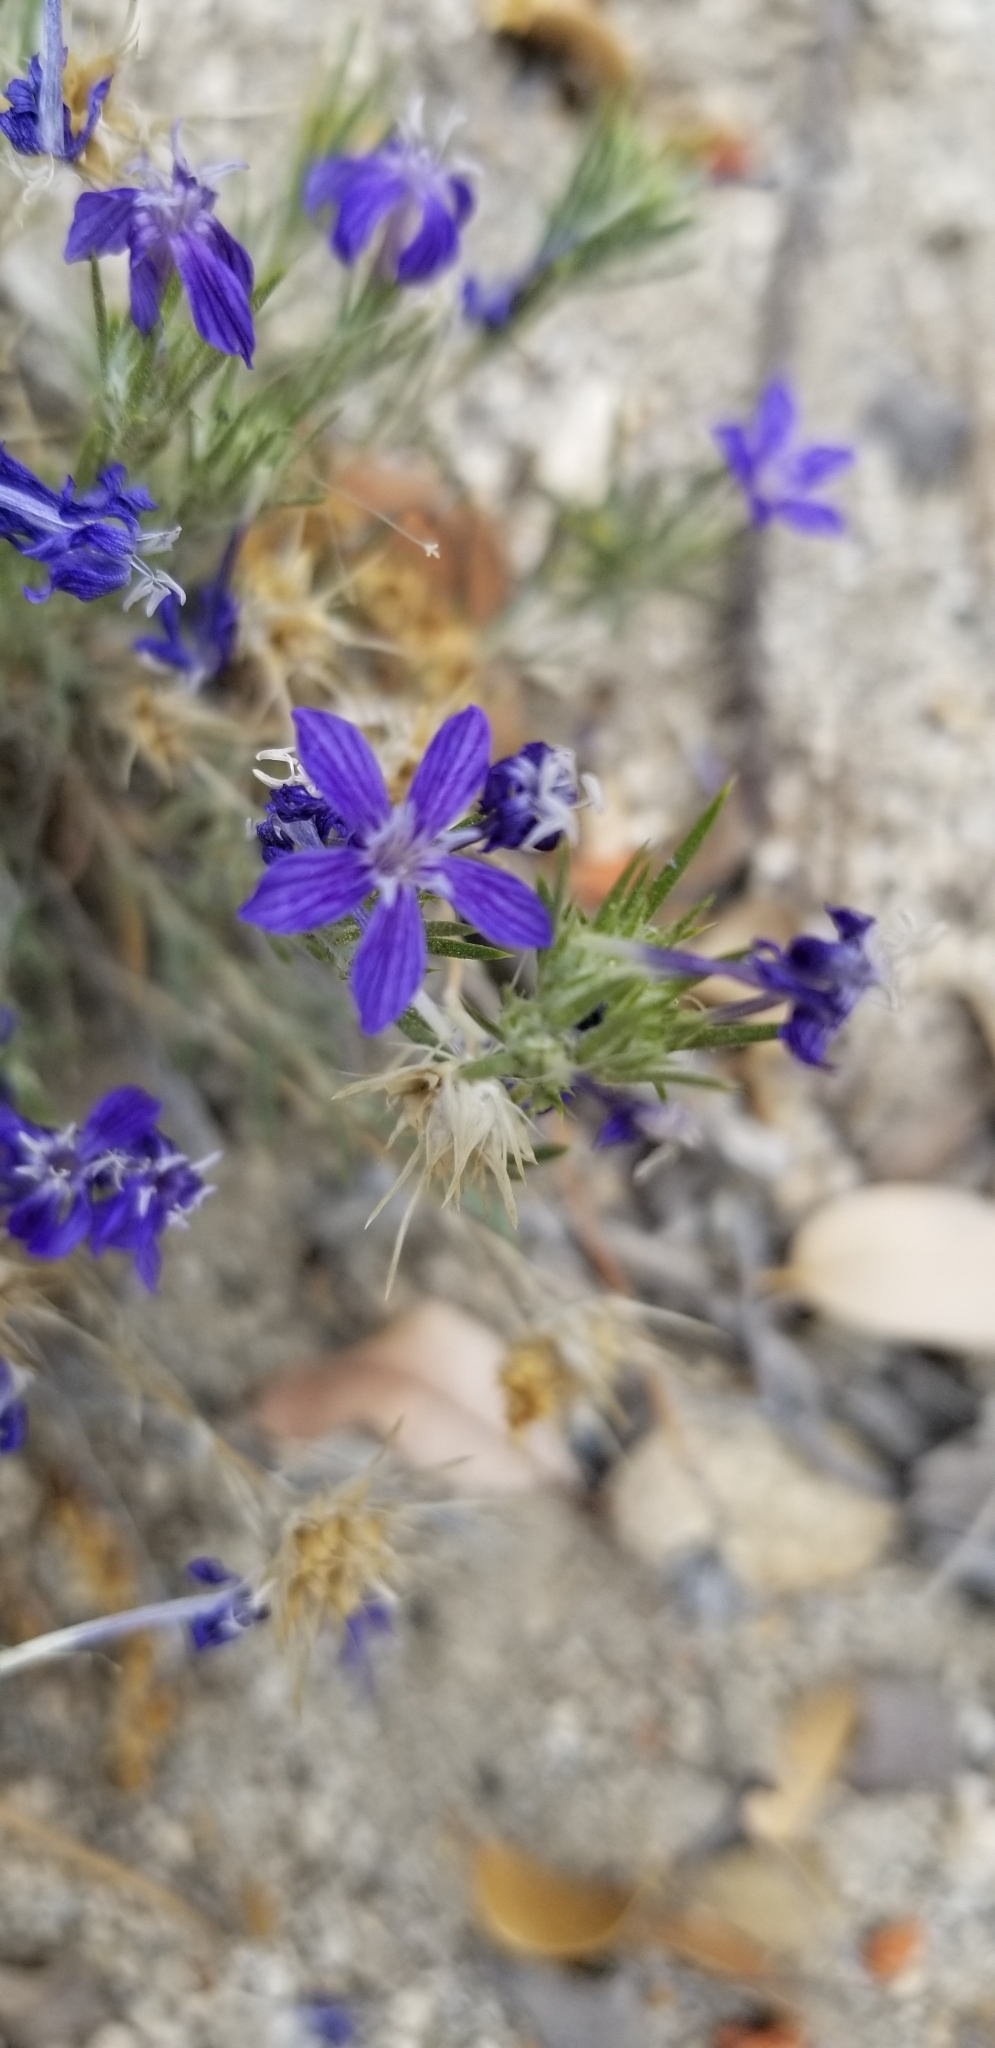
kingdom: Plantae
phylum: Tracheophyta
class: Magnoliopsida
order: Ericales
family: Polemoniaceae
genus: Eriastrum
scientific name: Eriastrum densifolium
